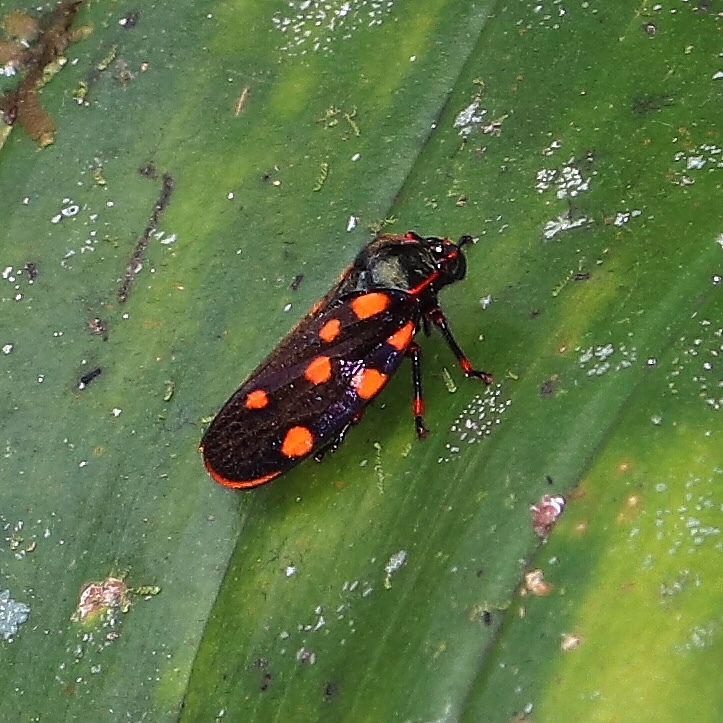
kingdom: Animalia
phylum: Arthropoda
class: Insecta
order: Hemiptera
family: Cercopidae
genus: Mahanarva
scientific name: Mahanarva costaricensis
